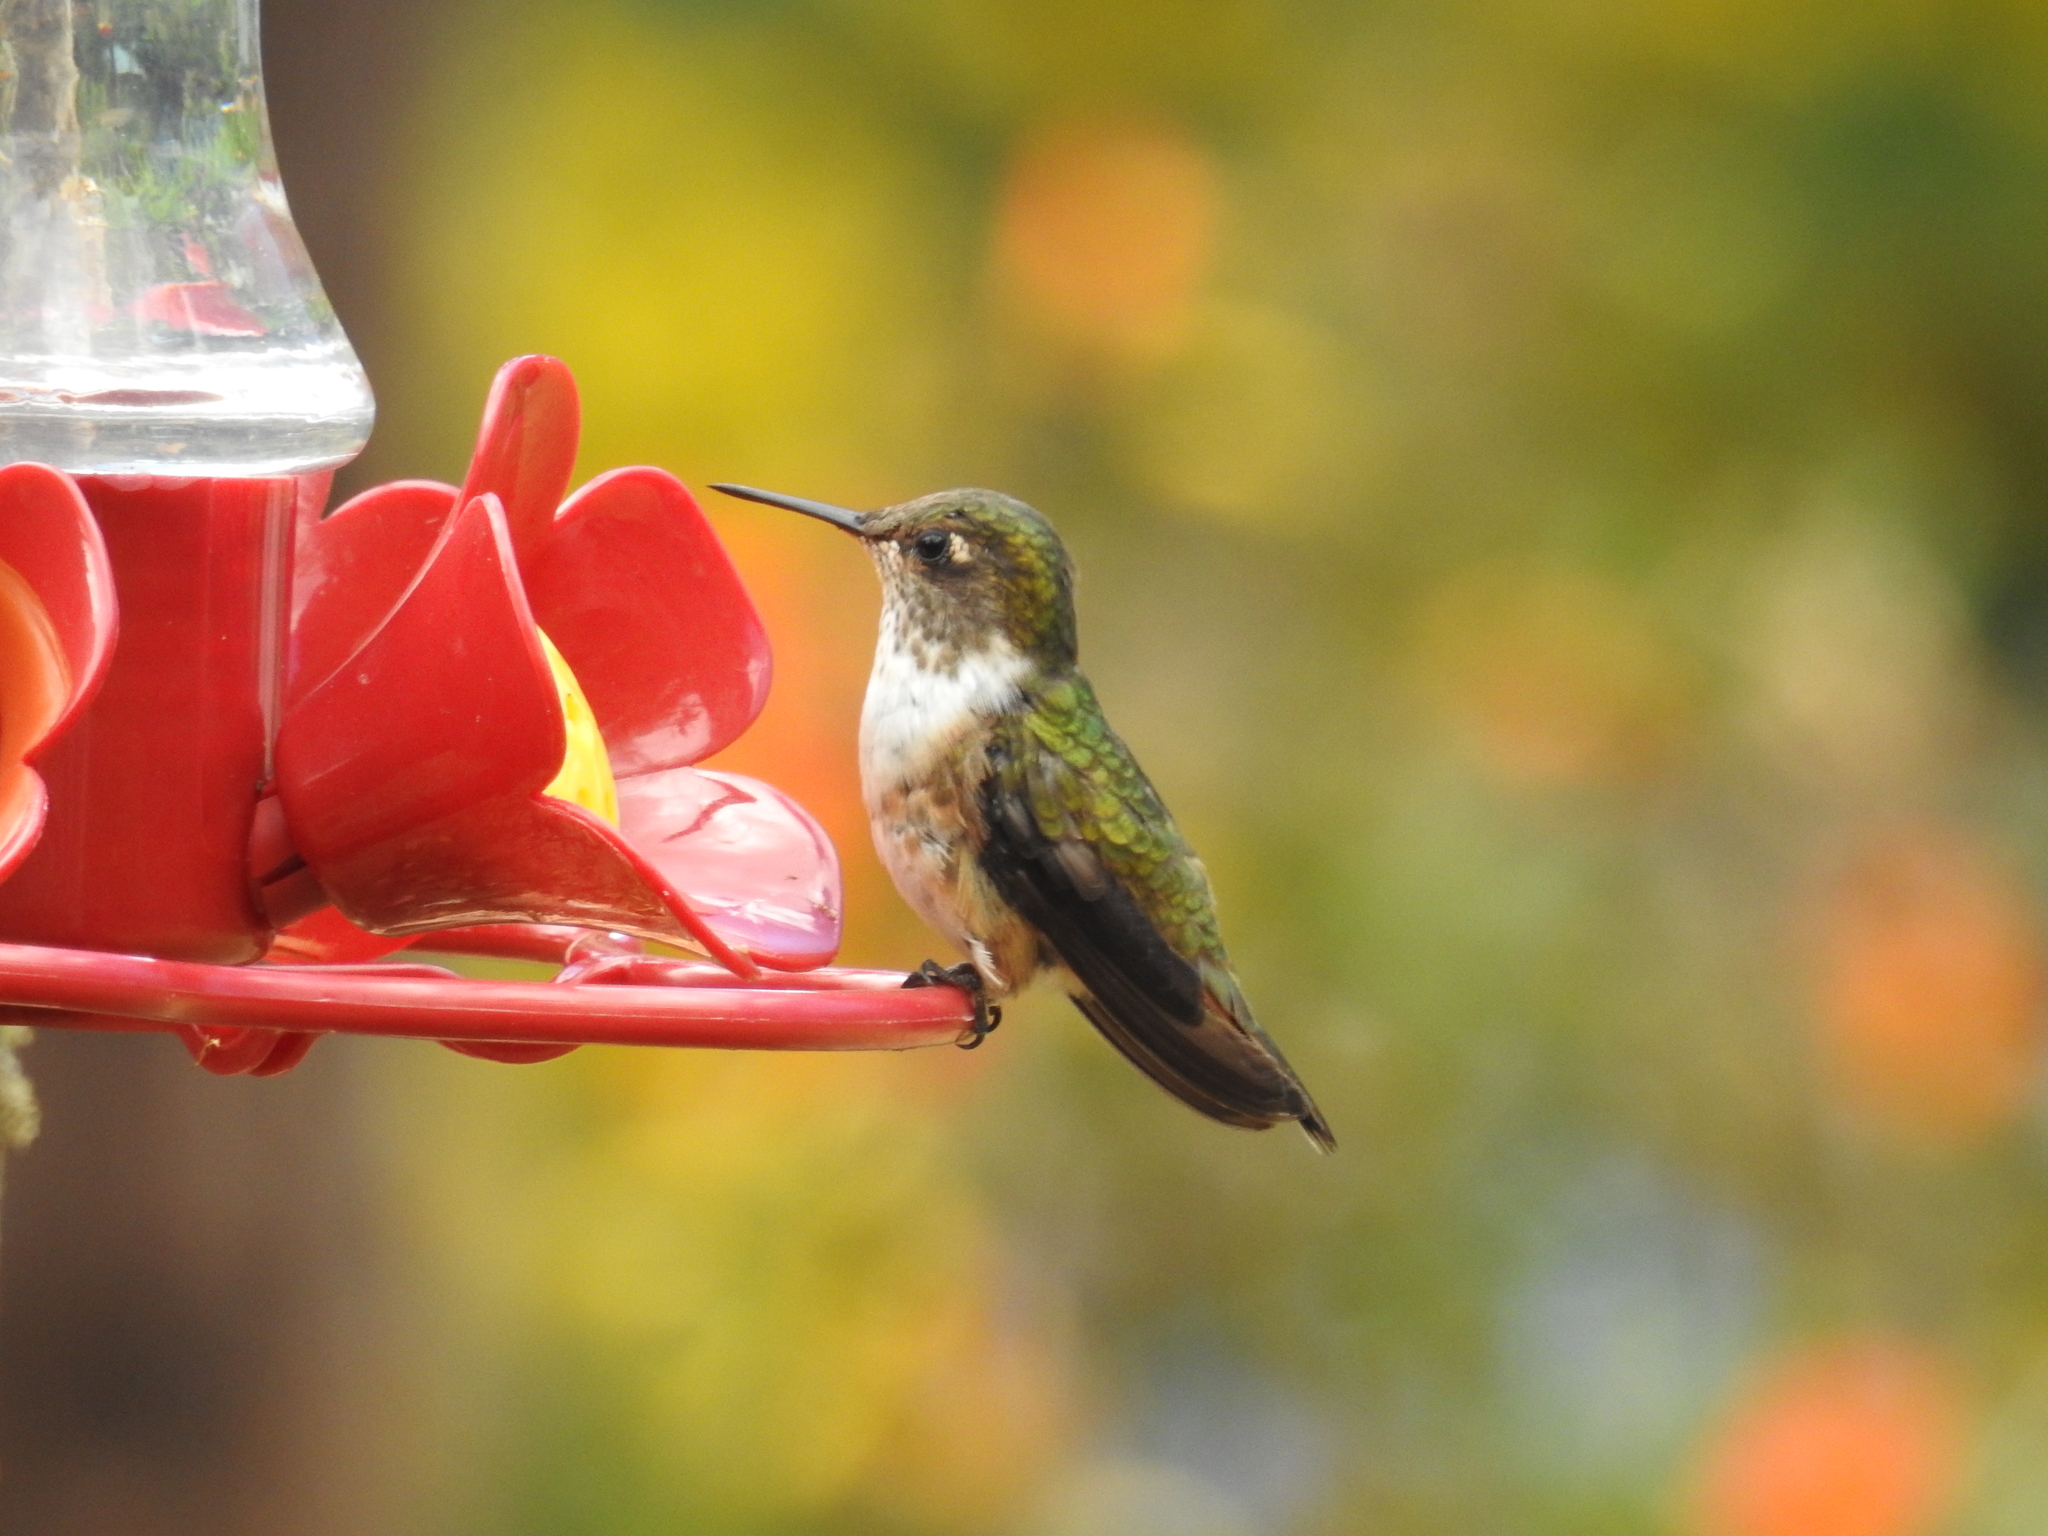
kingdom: Animalia
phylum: Chordata
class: Aves
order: Apodiformes
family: Trochilidae
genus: Selasphorus
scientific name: Selasphorus flammula
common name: Volcano hummingbird
